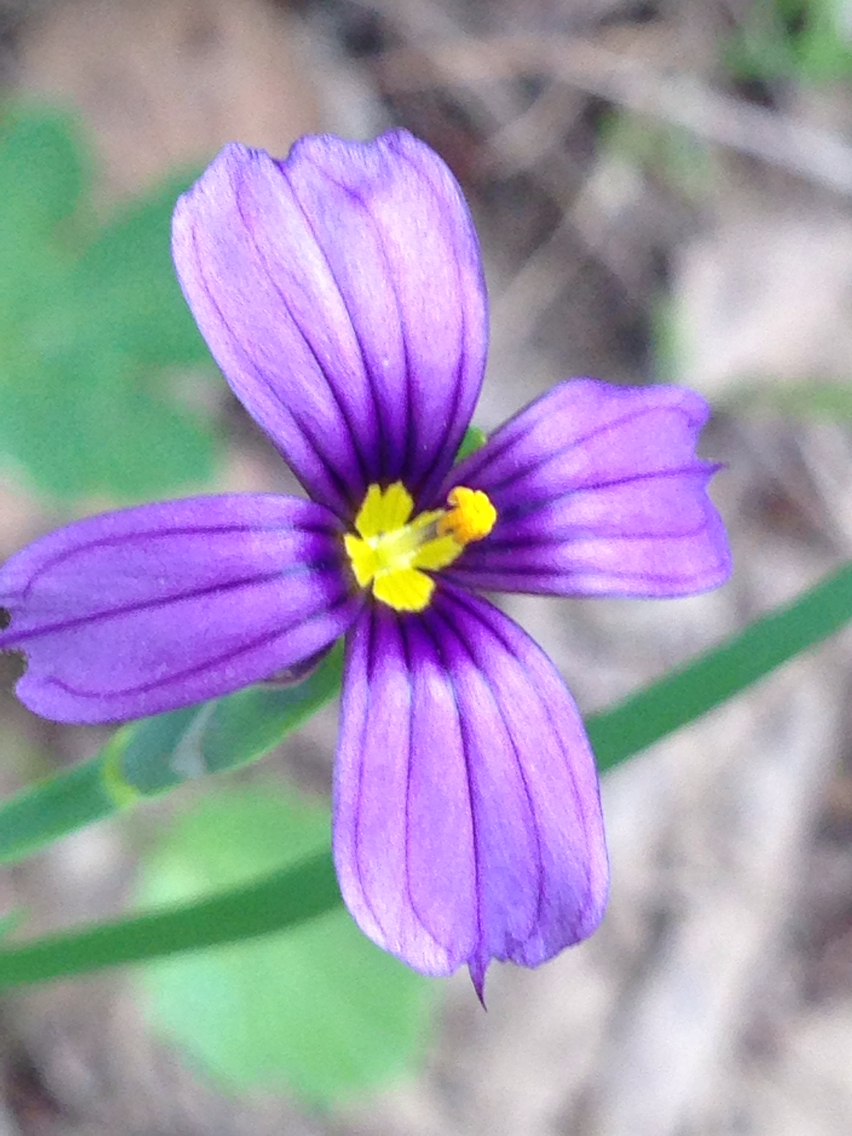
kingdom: Plantae
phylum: Tracheophyta
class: Liliopsida
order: Asparagales
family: Iridaceae
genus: Sisyrinchium
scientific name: Sisyrinchium bellum
